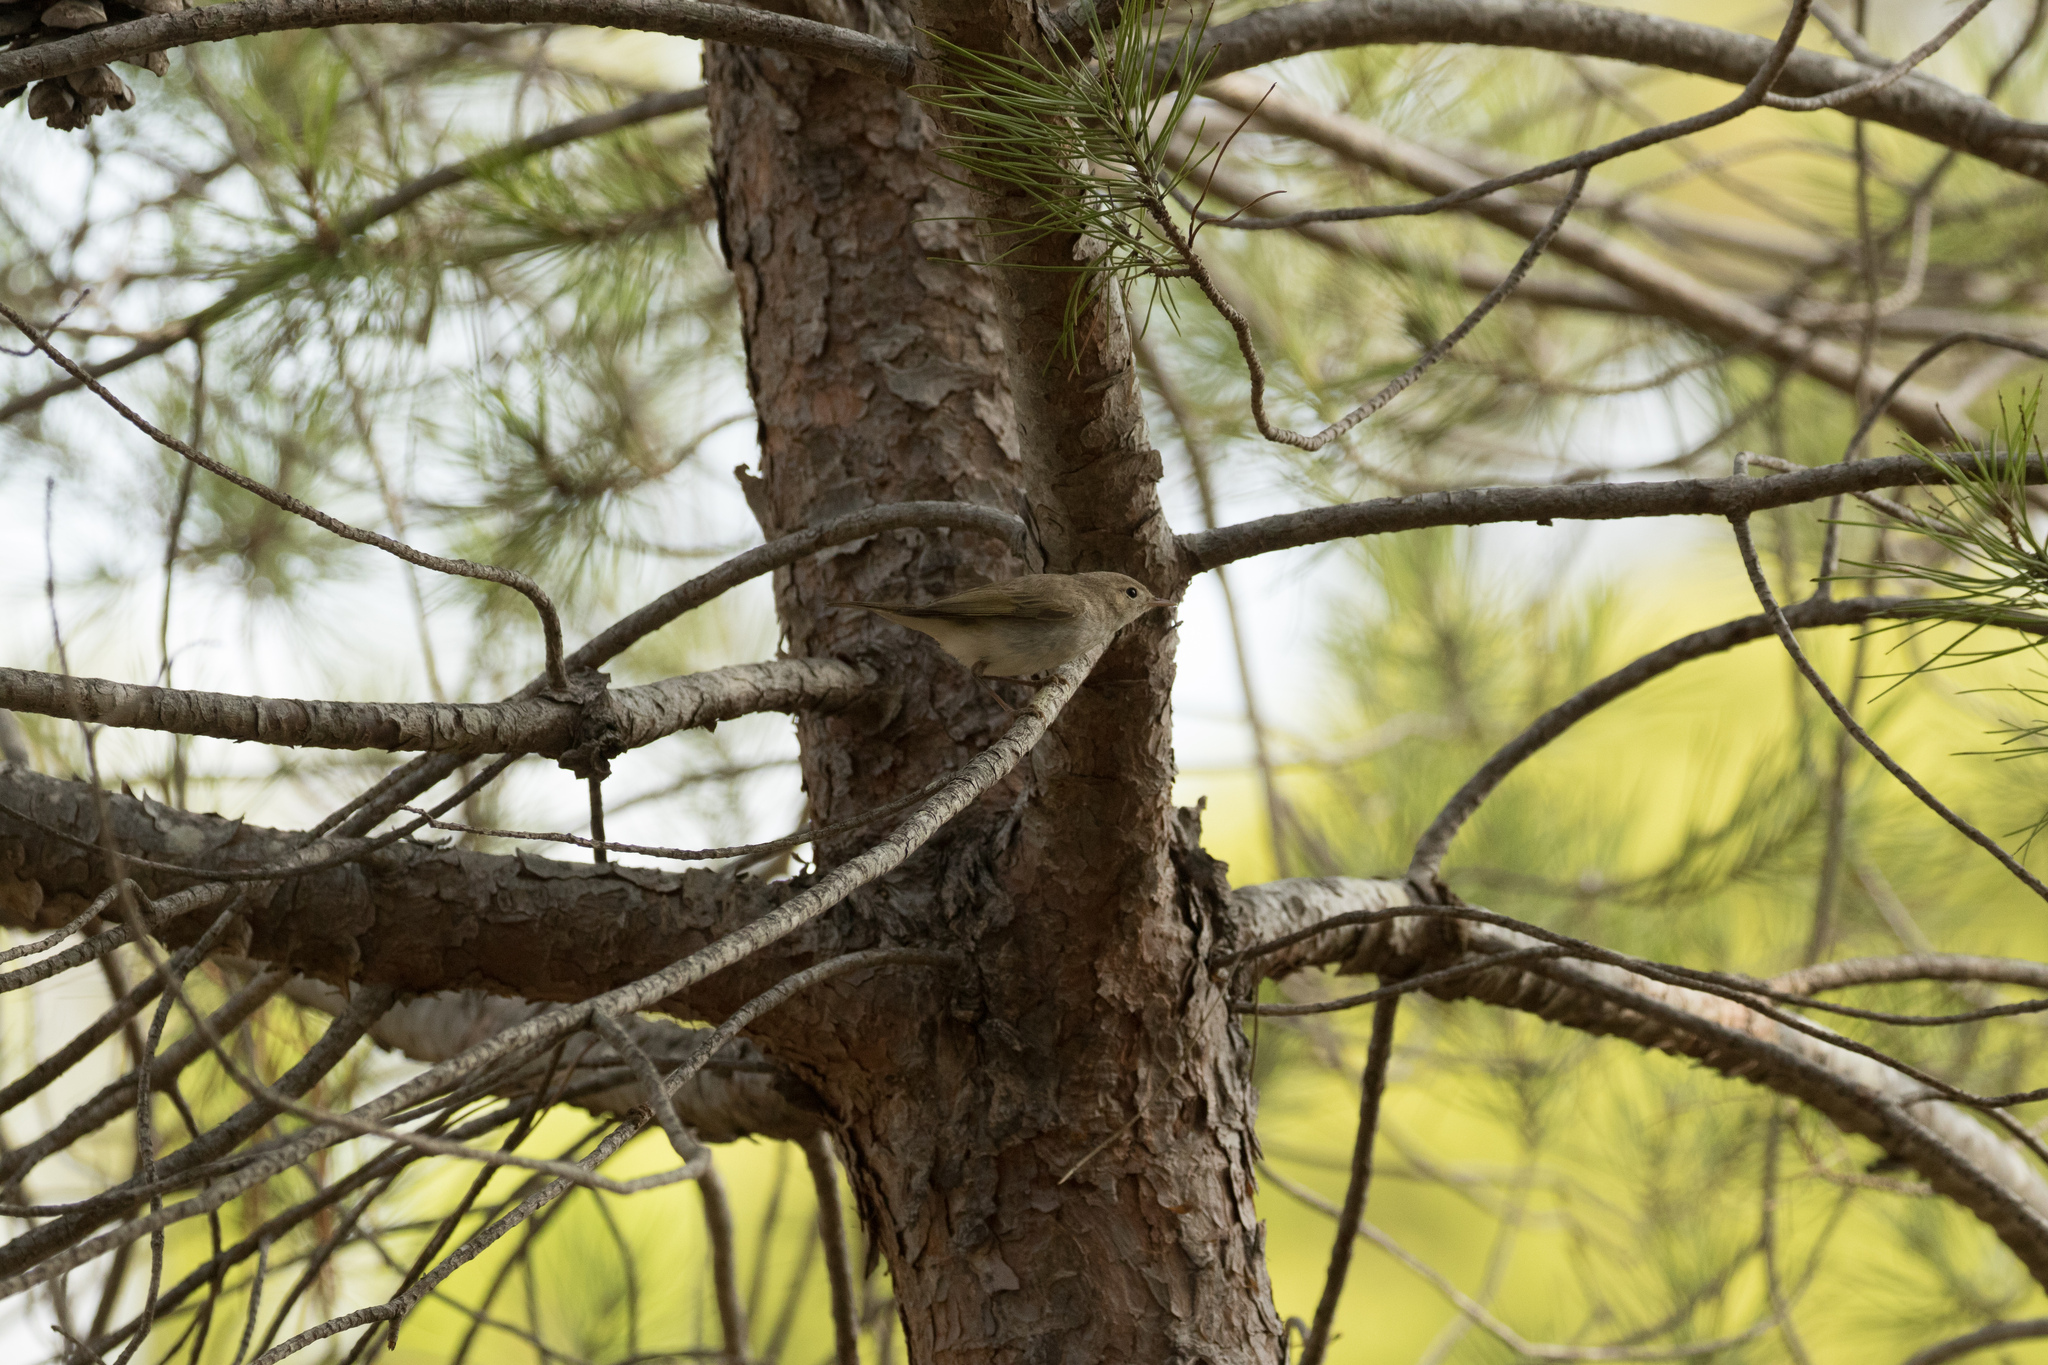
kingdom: Animalia
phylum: Chordata
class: Aves
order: Passeriformes
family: Phylloscopidae
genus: Phylloscopus
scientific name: Phylloscopus bonelli
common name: Western bonelli's warbler
